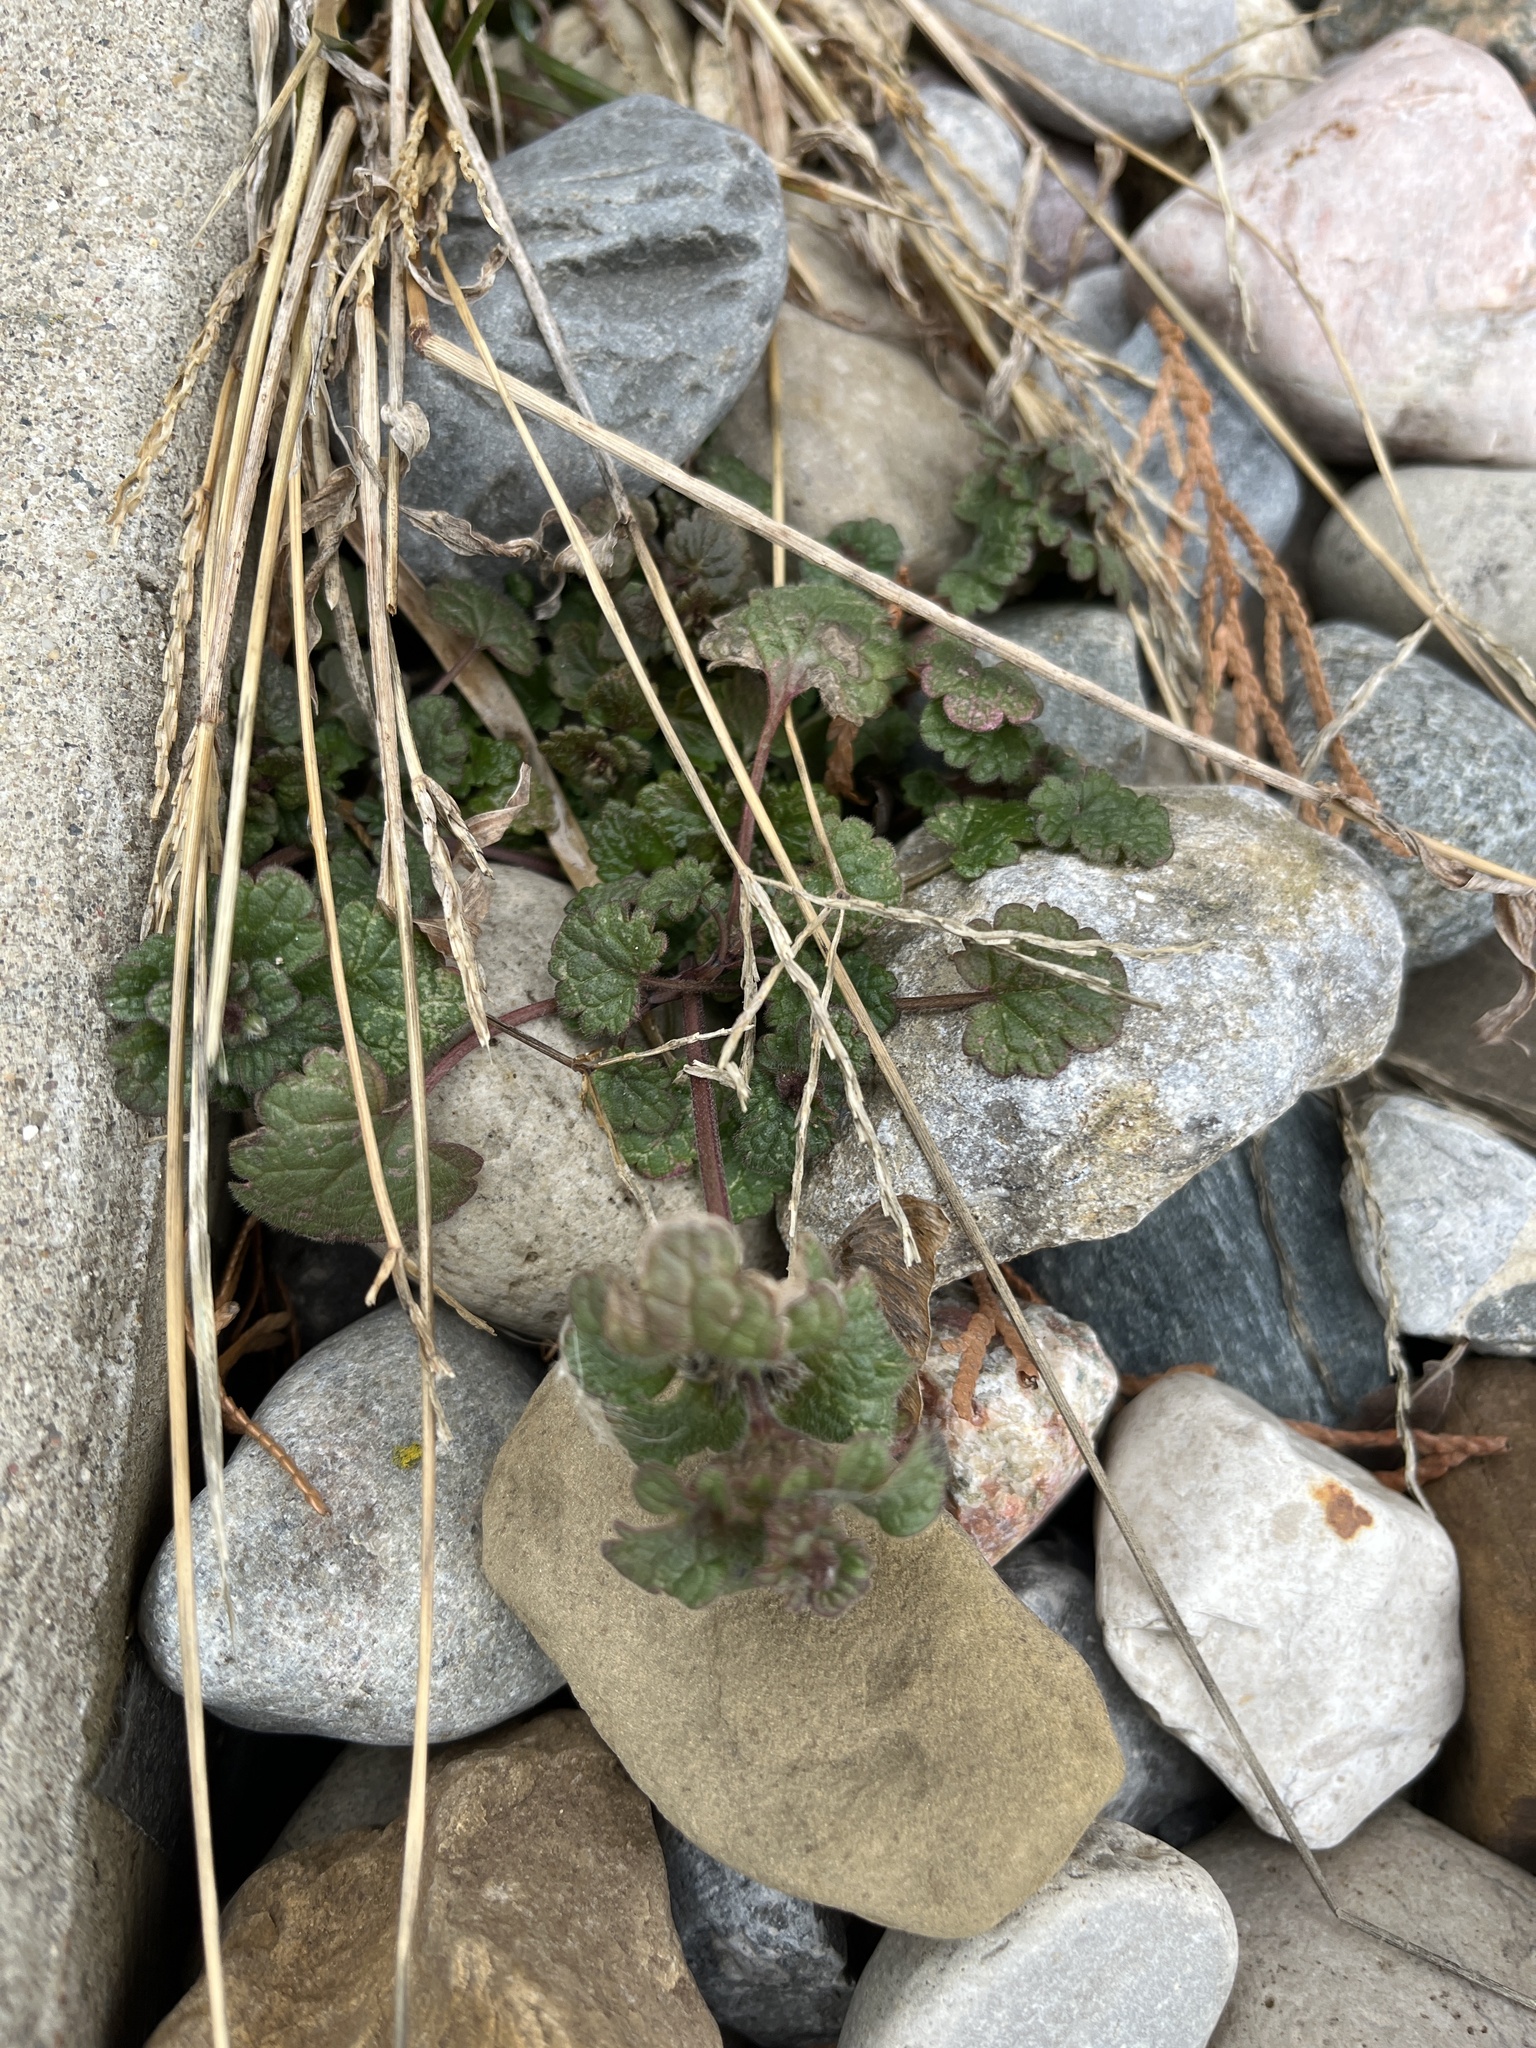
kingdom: Plantae
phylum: Tracheophyta
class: Magnoliopsida
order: Lamiales
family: Lamiaceae
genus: Lamium
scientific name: Lamium amplexicaule
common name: Henbit dead-nettle
